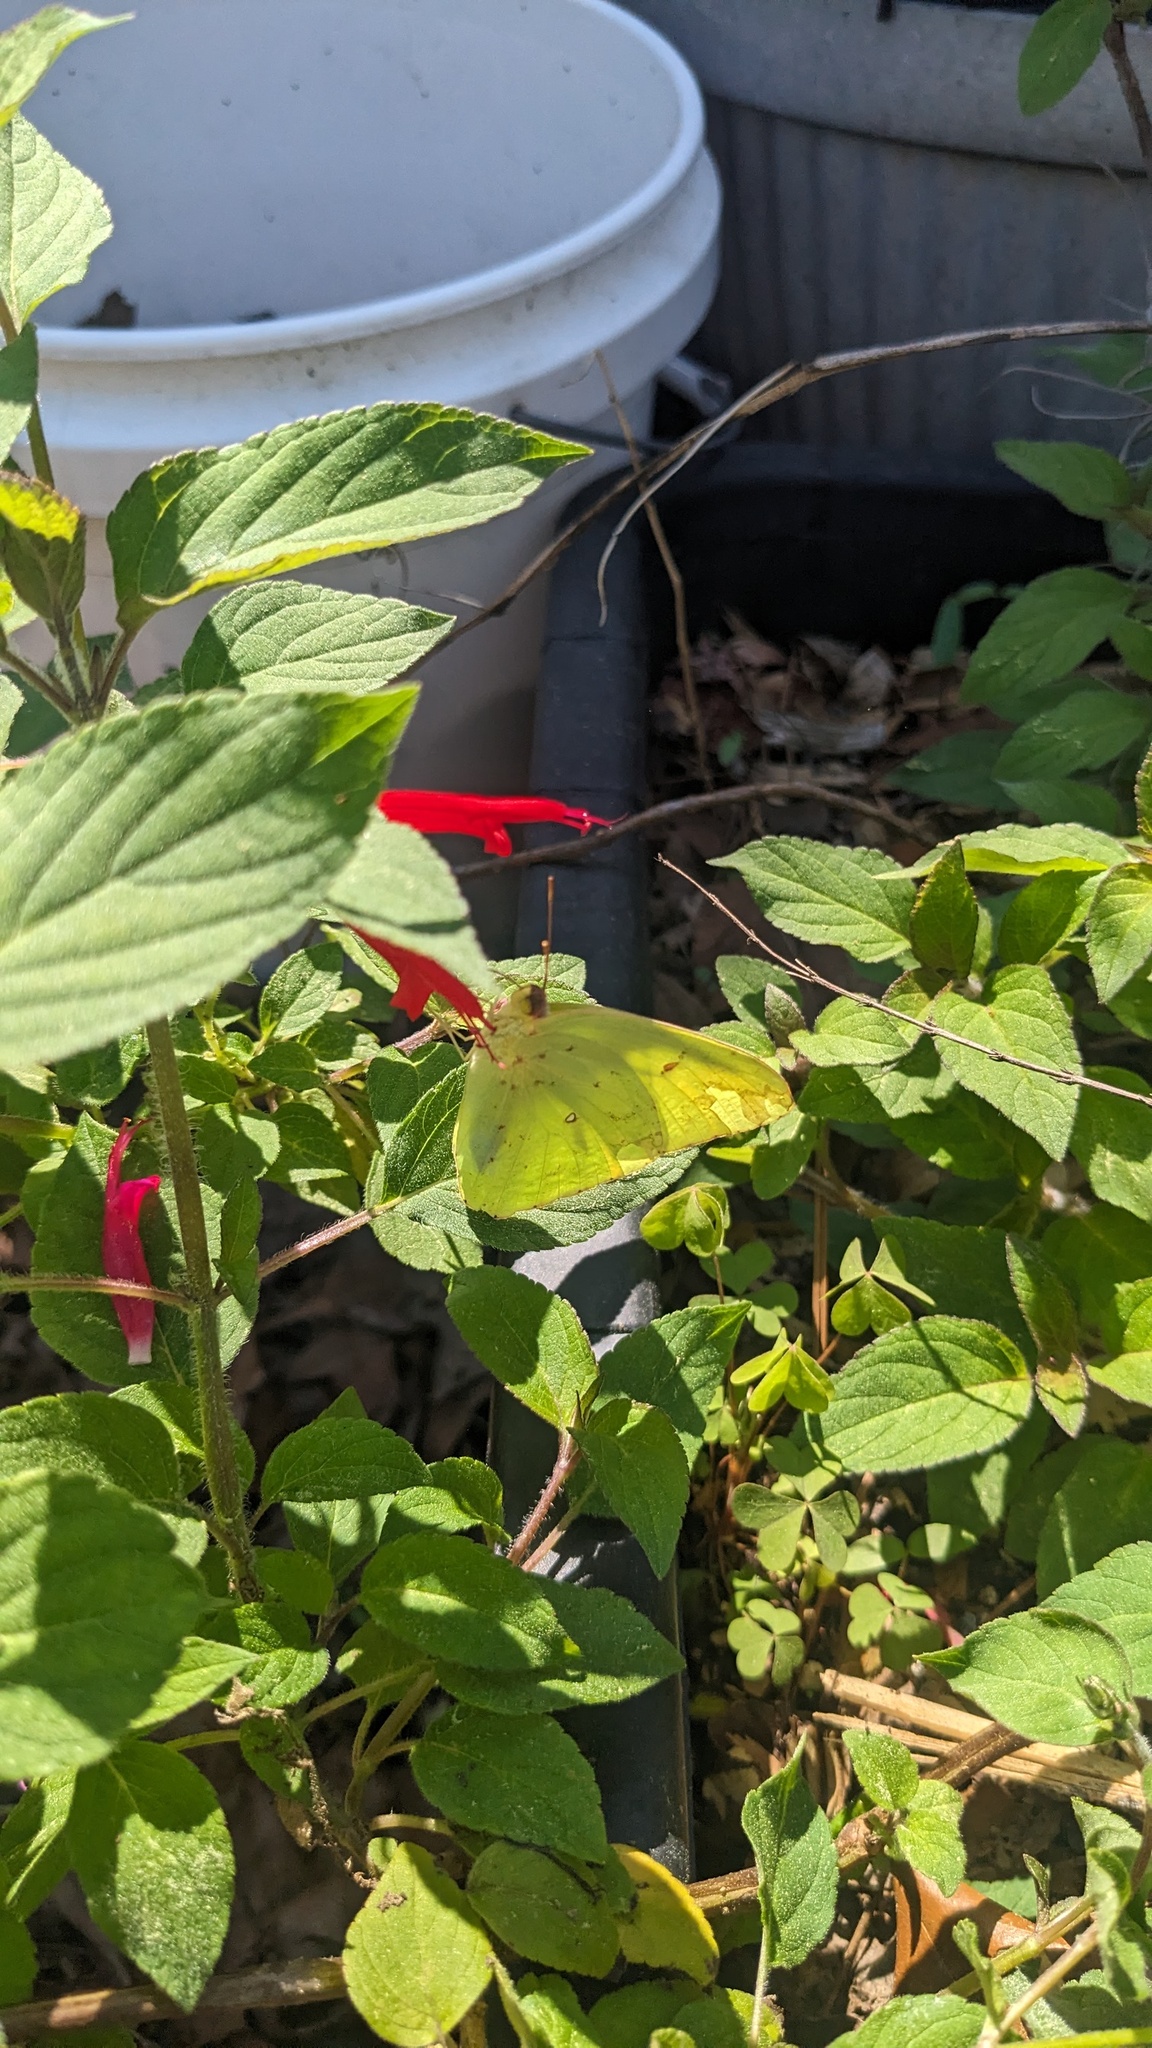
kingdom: Animalia
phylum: Arthropoda
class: Insecta
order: Lepidoptera
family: Pieridae
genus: Phoebis
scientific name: Phoebis sennae
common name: Cloudless sulphur
